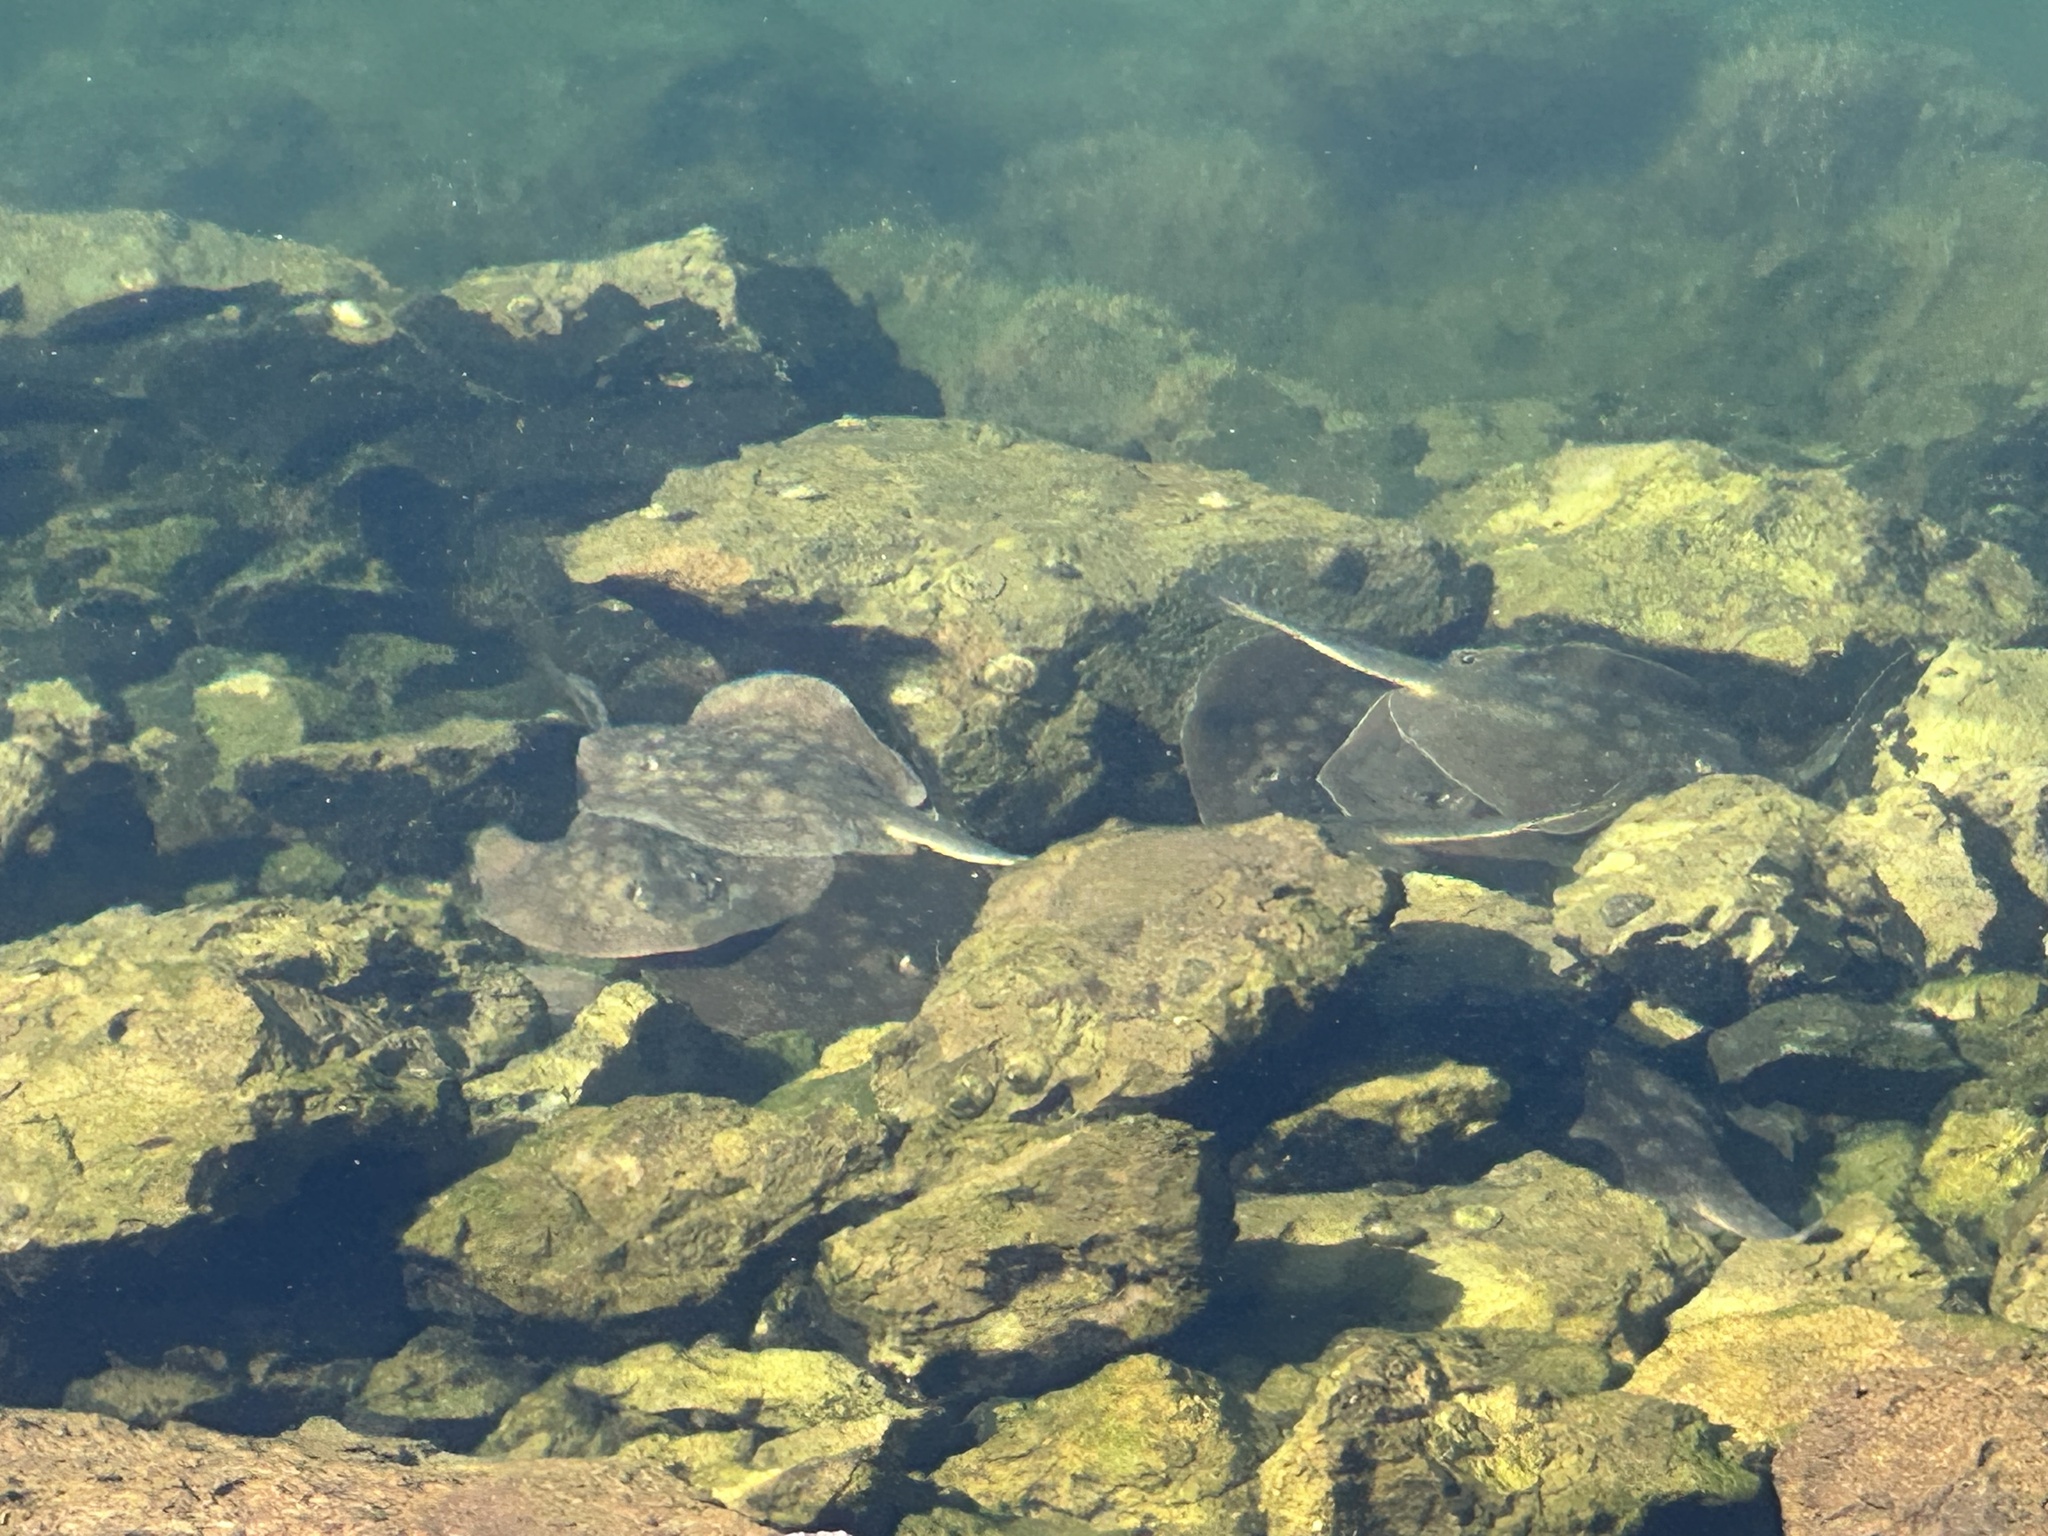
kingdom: Animalia
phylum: Chordata
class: Elasmobranchii
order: Myliobatiformes
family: Urolophidae
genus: Urolophus
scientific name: Urolophus halleri
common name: Round stingray
